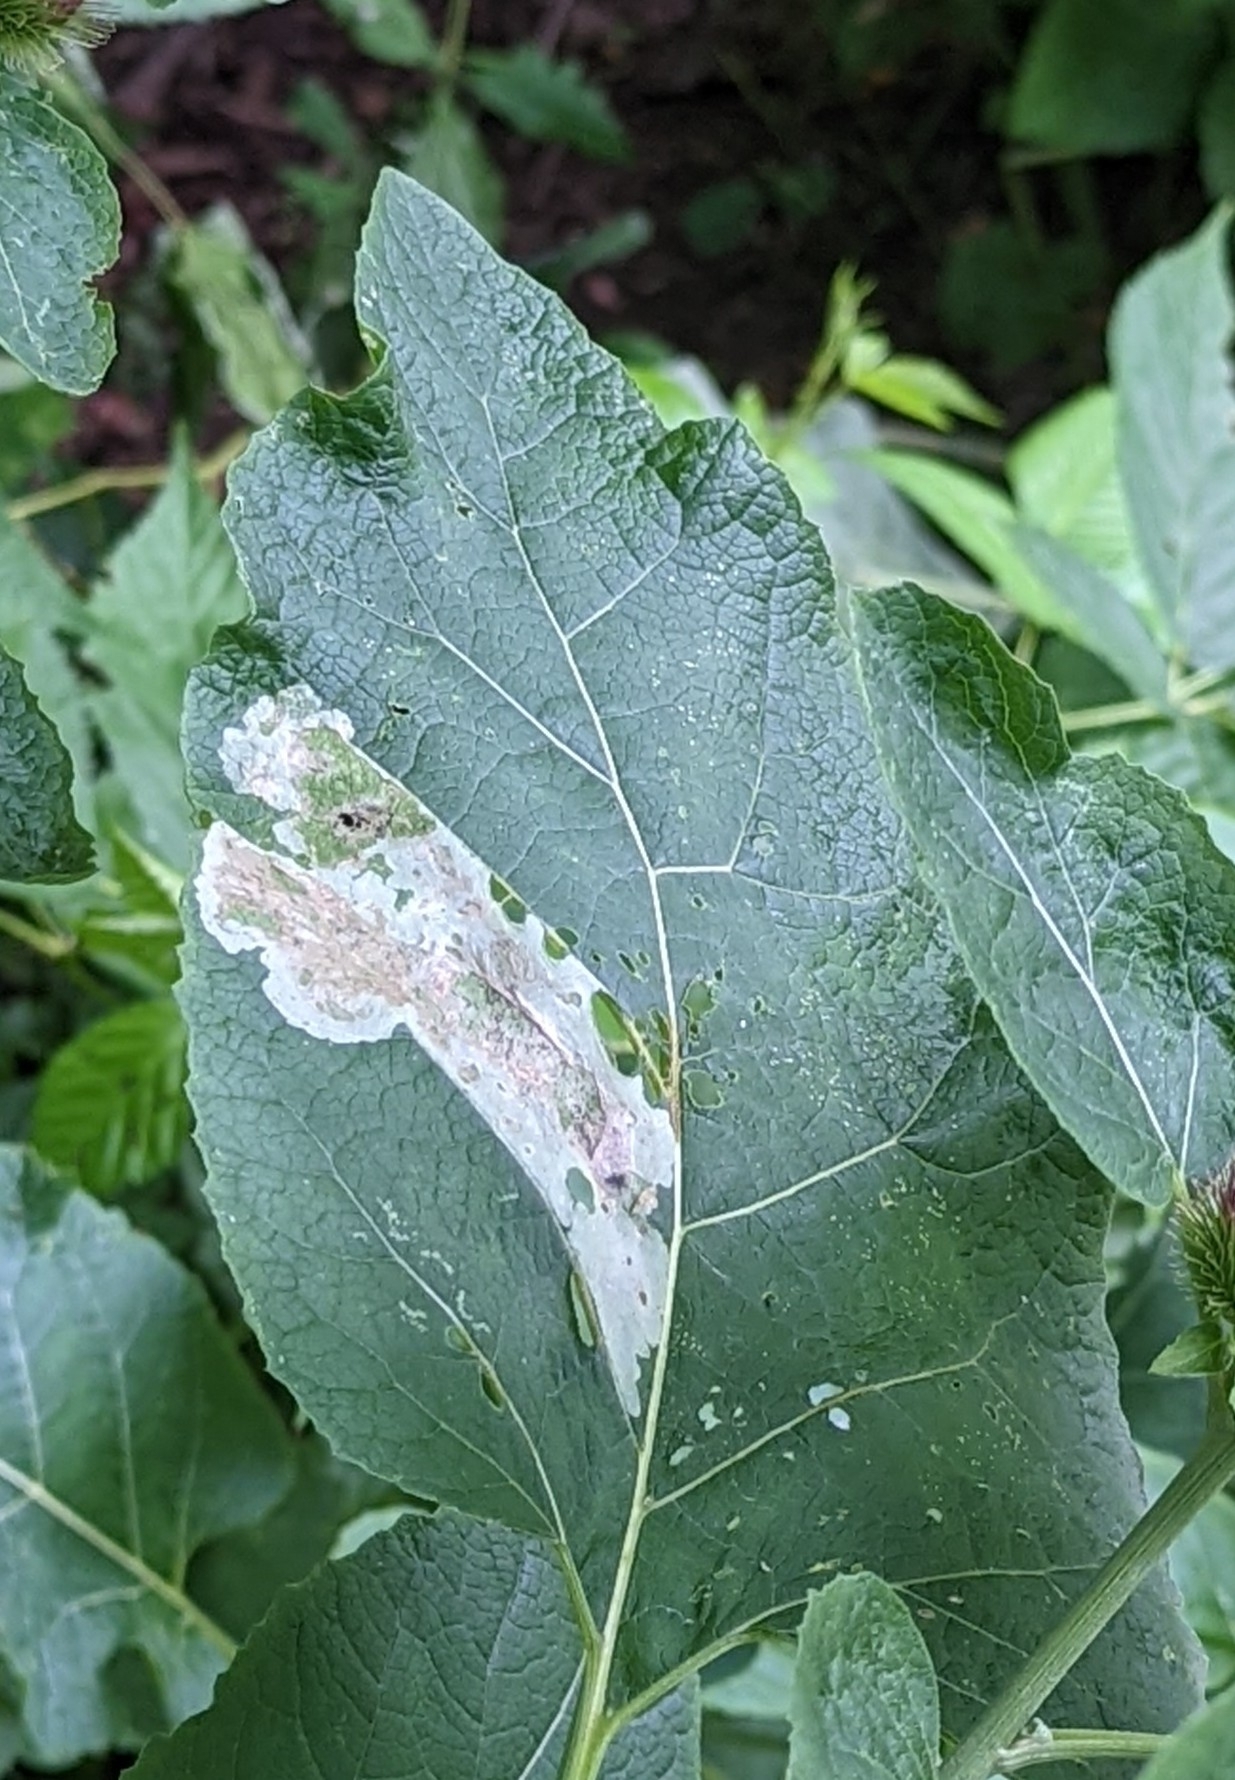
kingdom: Animalia
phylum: Arthropoda
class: Insecta
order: Diptera
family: Agromyzidae
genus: Calycomyza
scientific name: Calycomyza flavinotum
